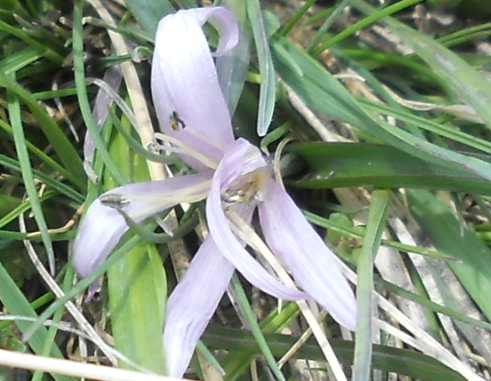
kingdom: Plantae
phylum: Tracheophyta
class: Liliopsida
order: Liliales
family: Colchicaceae
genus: Colchicum
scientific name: Colchicum trigynum
